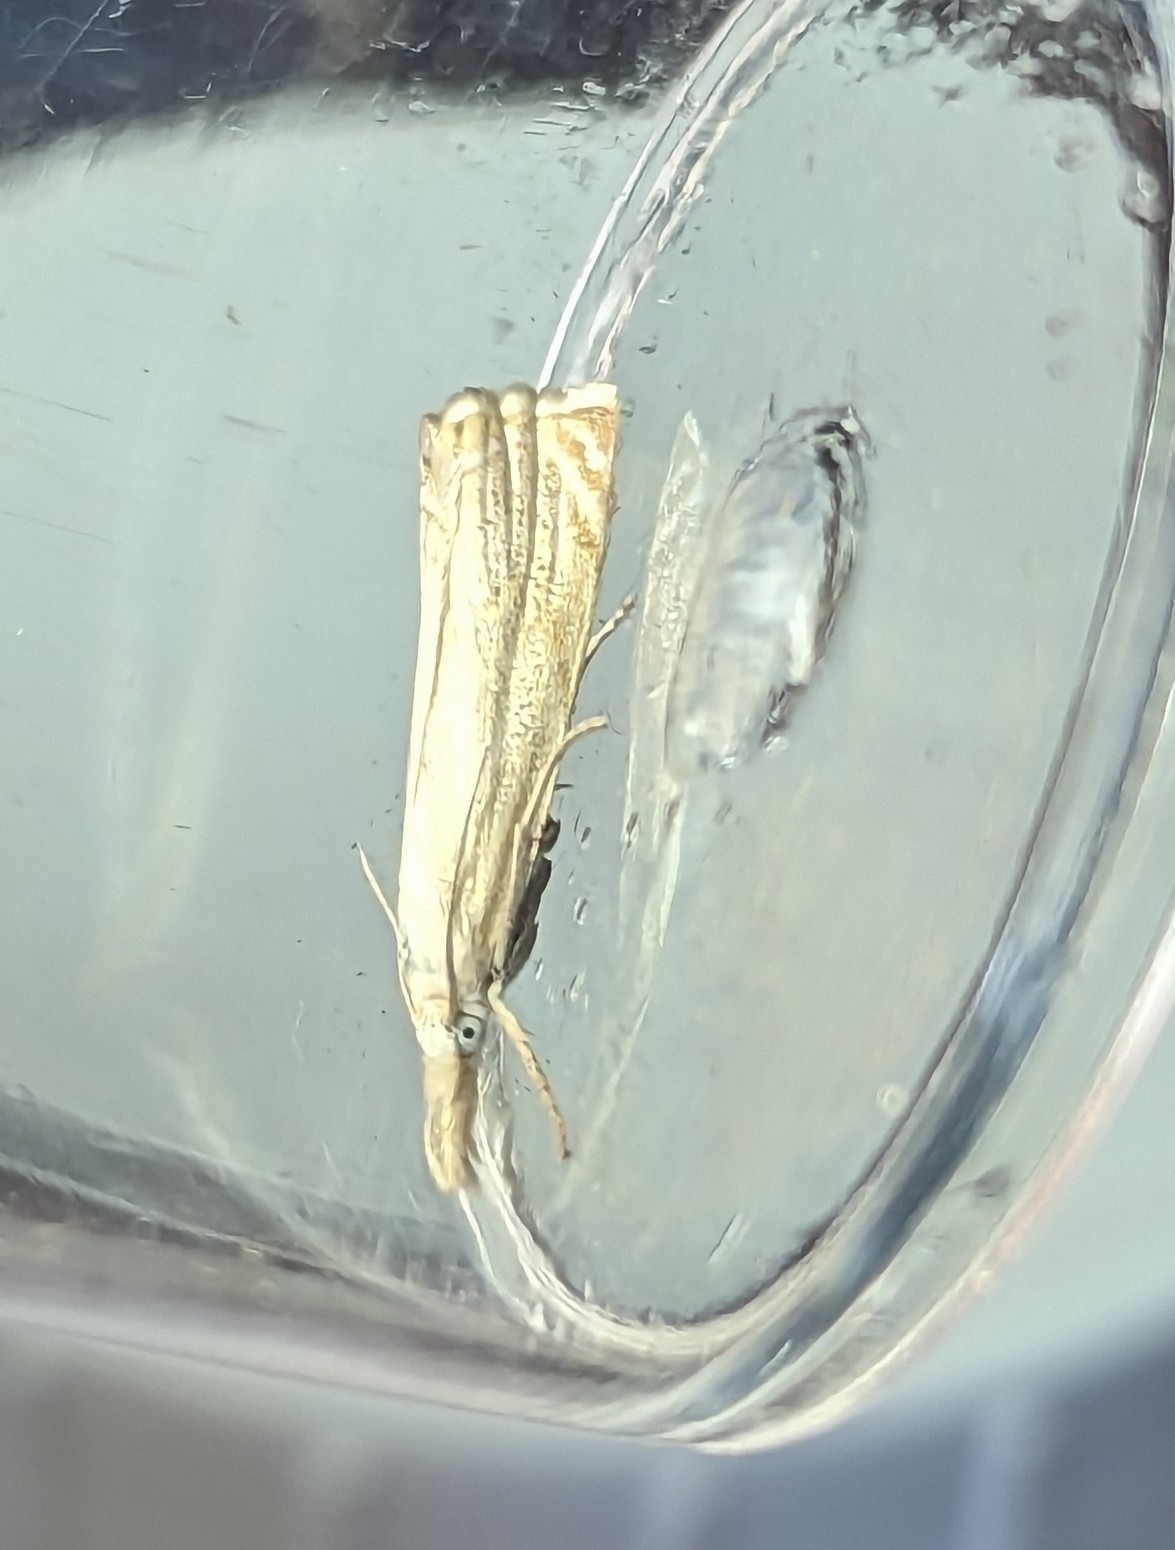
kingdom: Animalia
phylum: Arthropoda
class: Insecta
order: Lepidoptera
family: Crambidae
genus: Chrysoteuchia
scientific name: Chrysoteuchia culmella
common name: Garden grass-veneer
